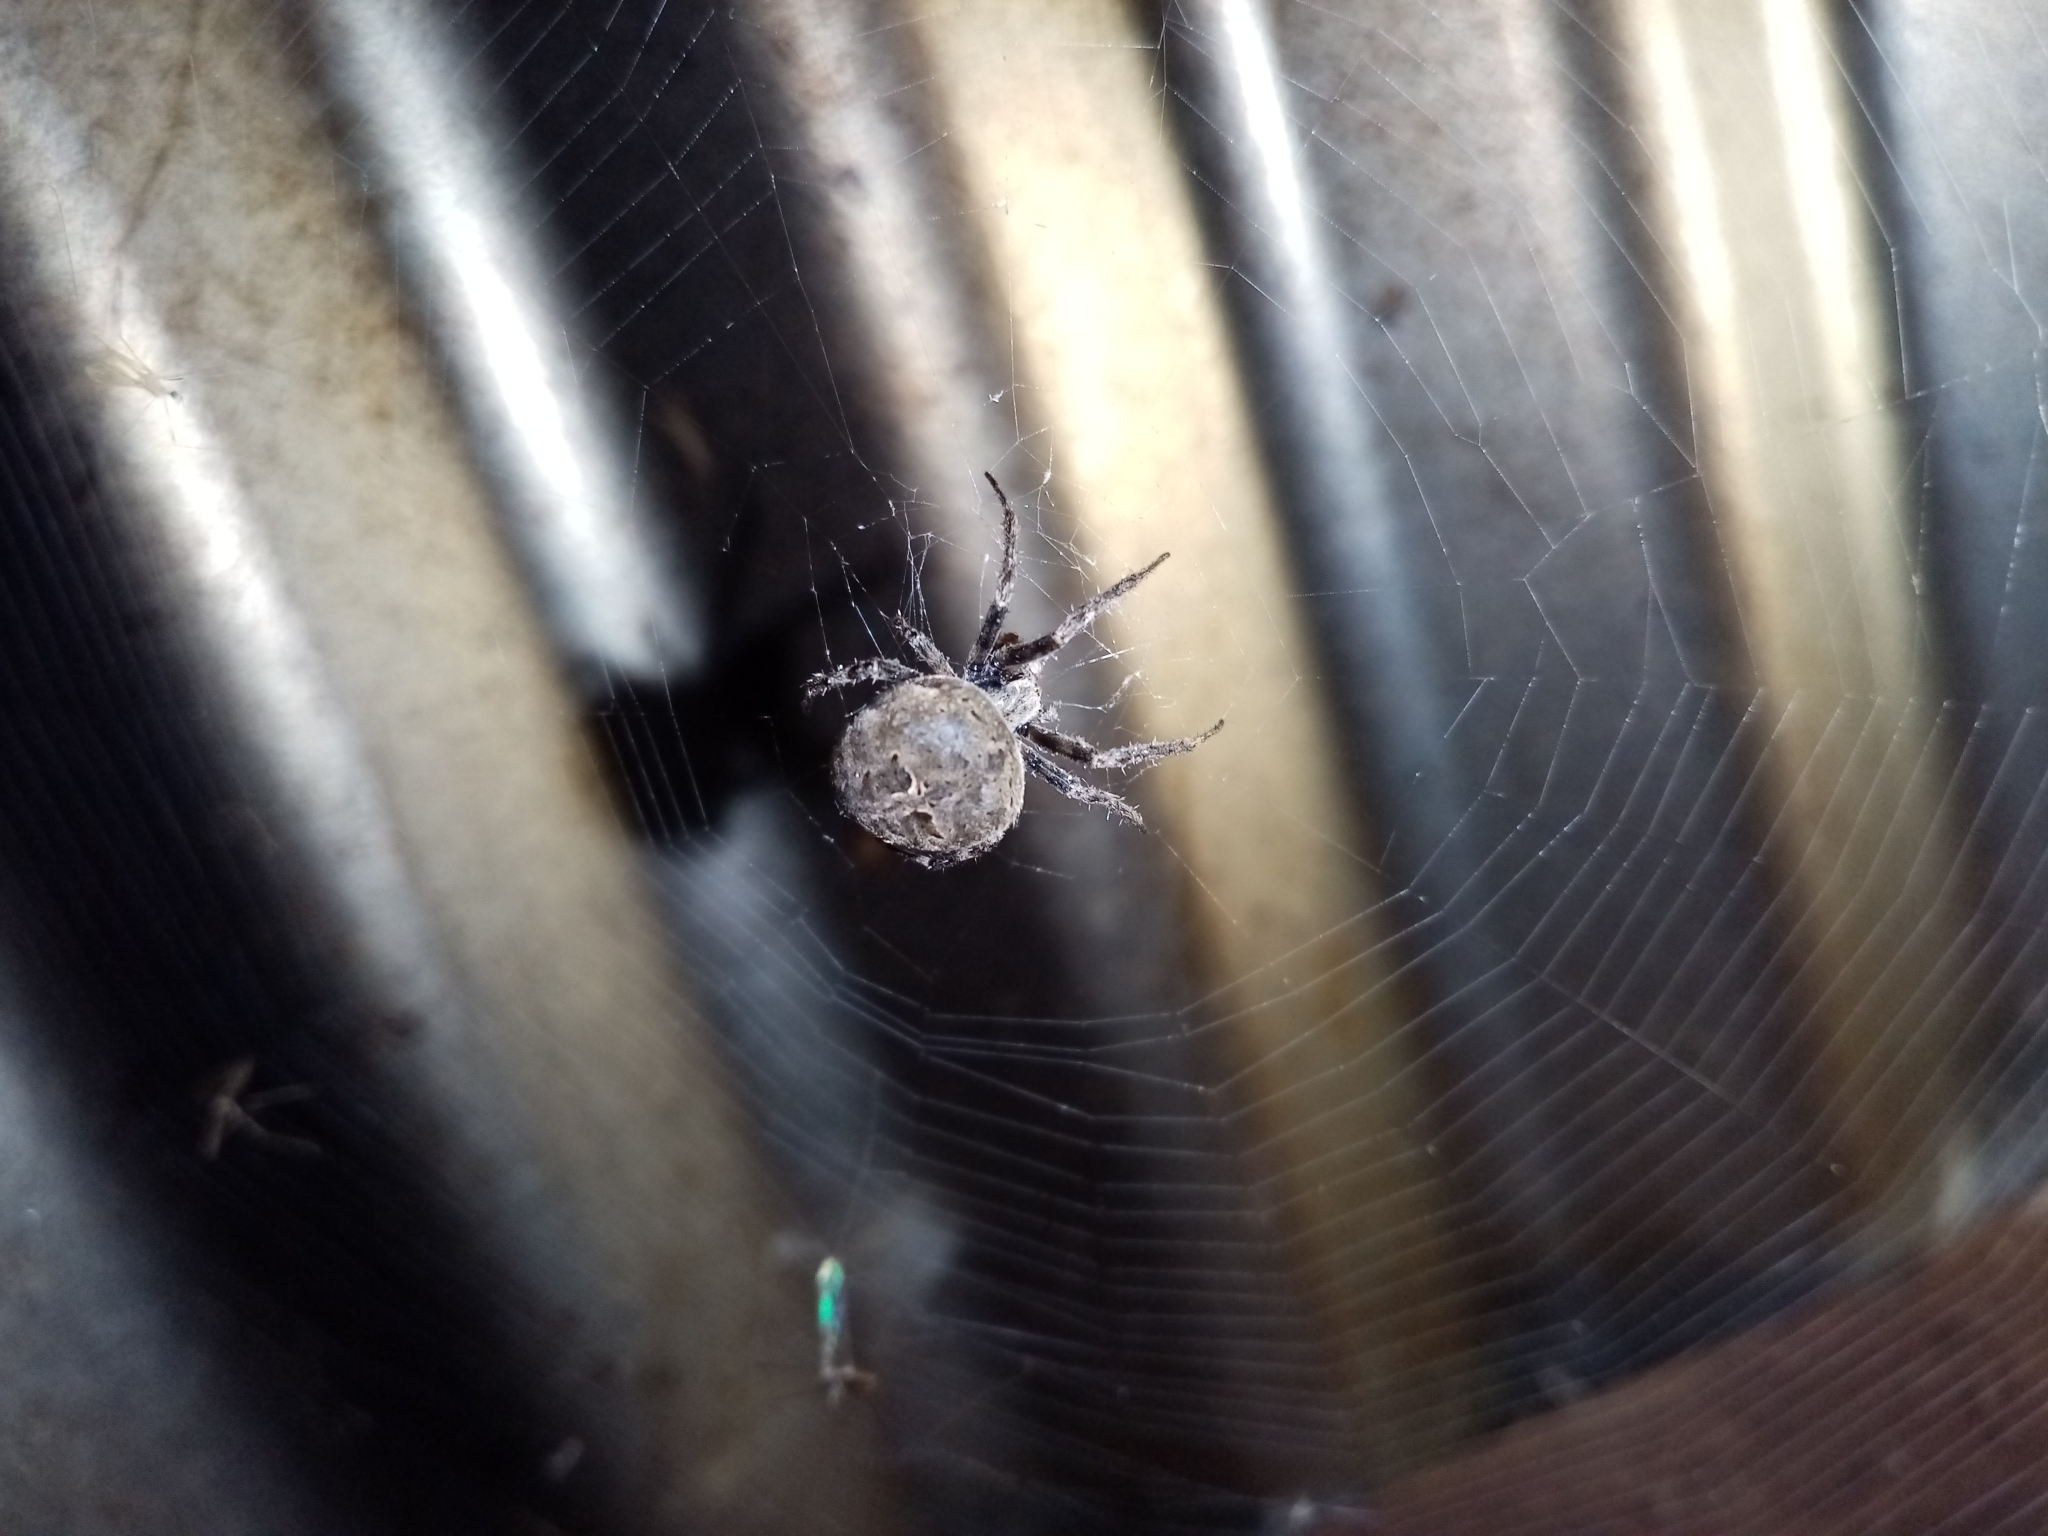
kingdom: Animalia
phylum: Arthropoda
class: Arachnida
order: Araneae
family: Araneidae
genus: Neoscona
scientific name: Neoscona nautica
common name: Orb weavers
